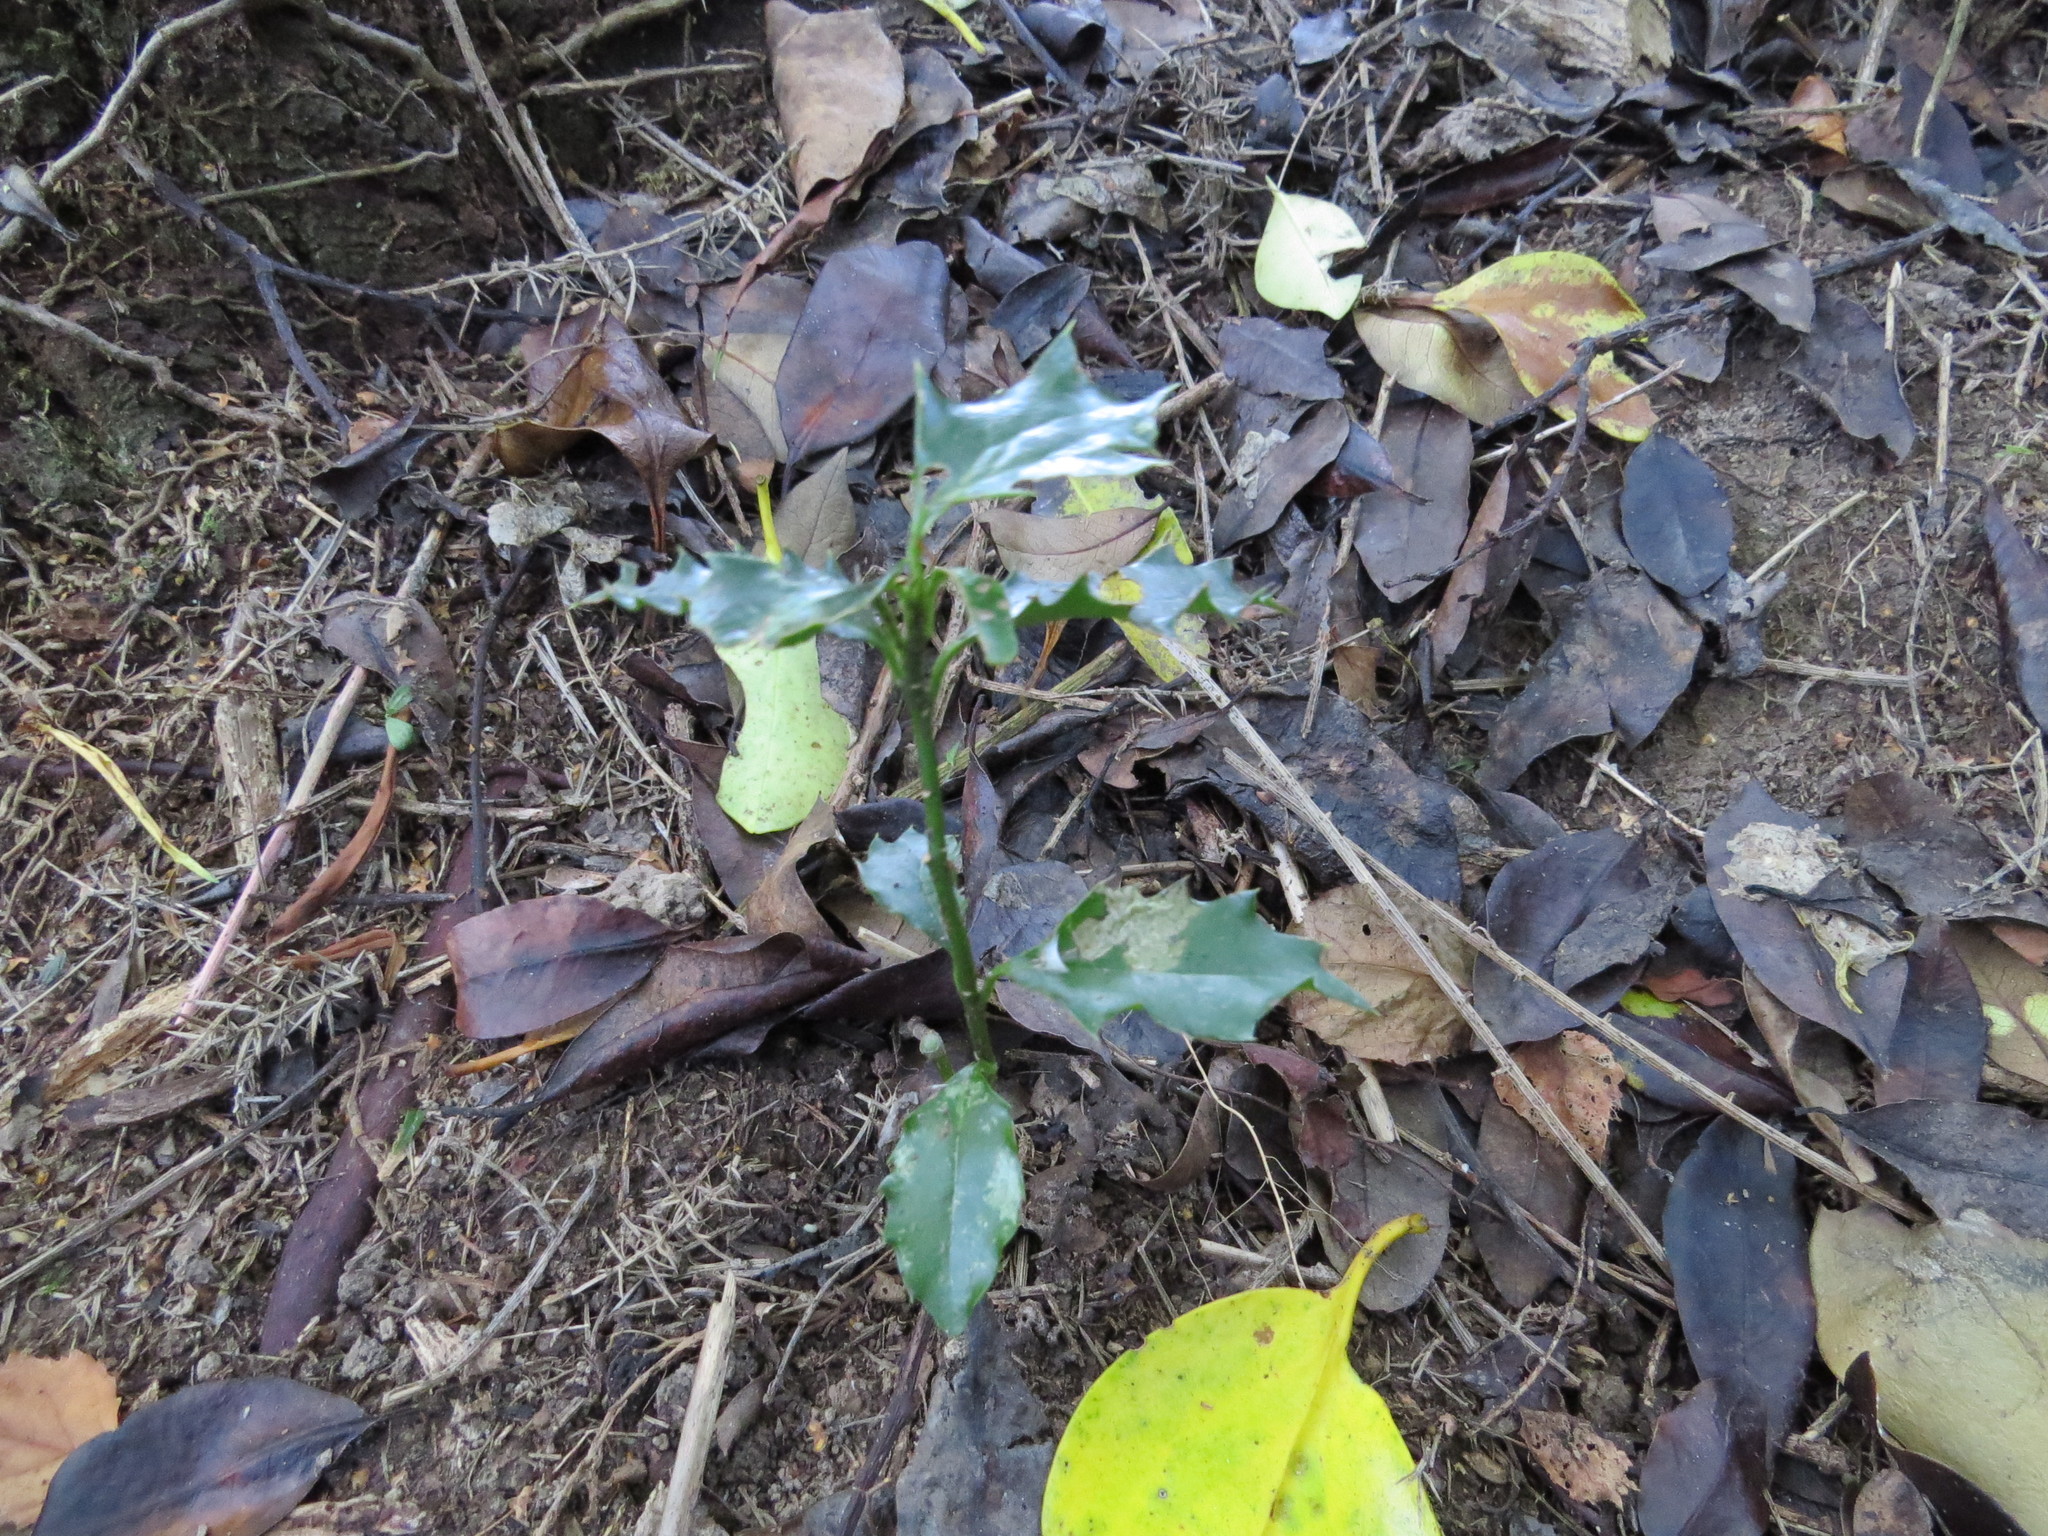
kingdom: Plantae
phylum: Tracheophyta
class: Magnoliopsida
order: Aquifoliales
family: Aquifoliaceae
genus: Ilex
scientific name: Ilex aquifolium
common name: English holly
